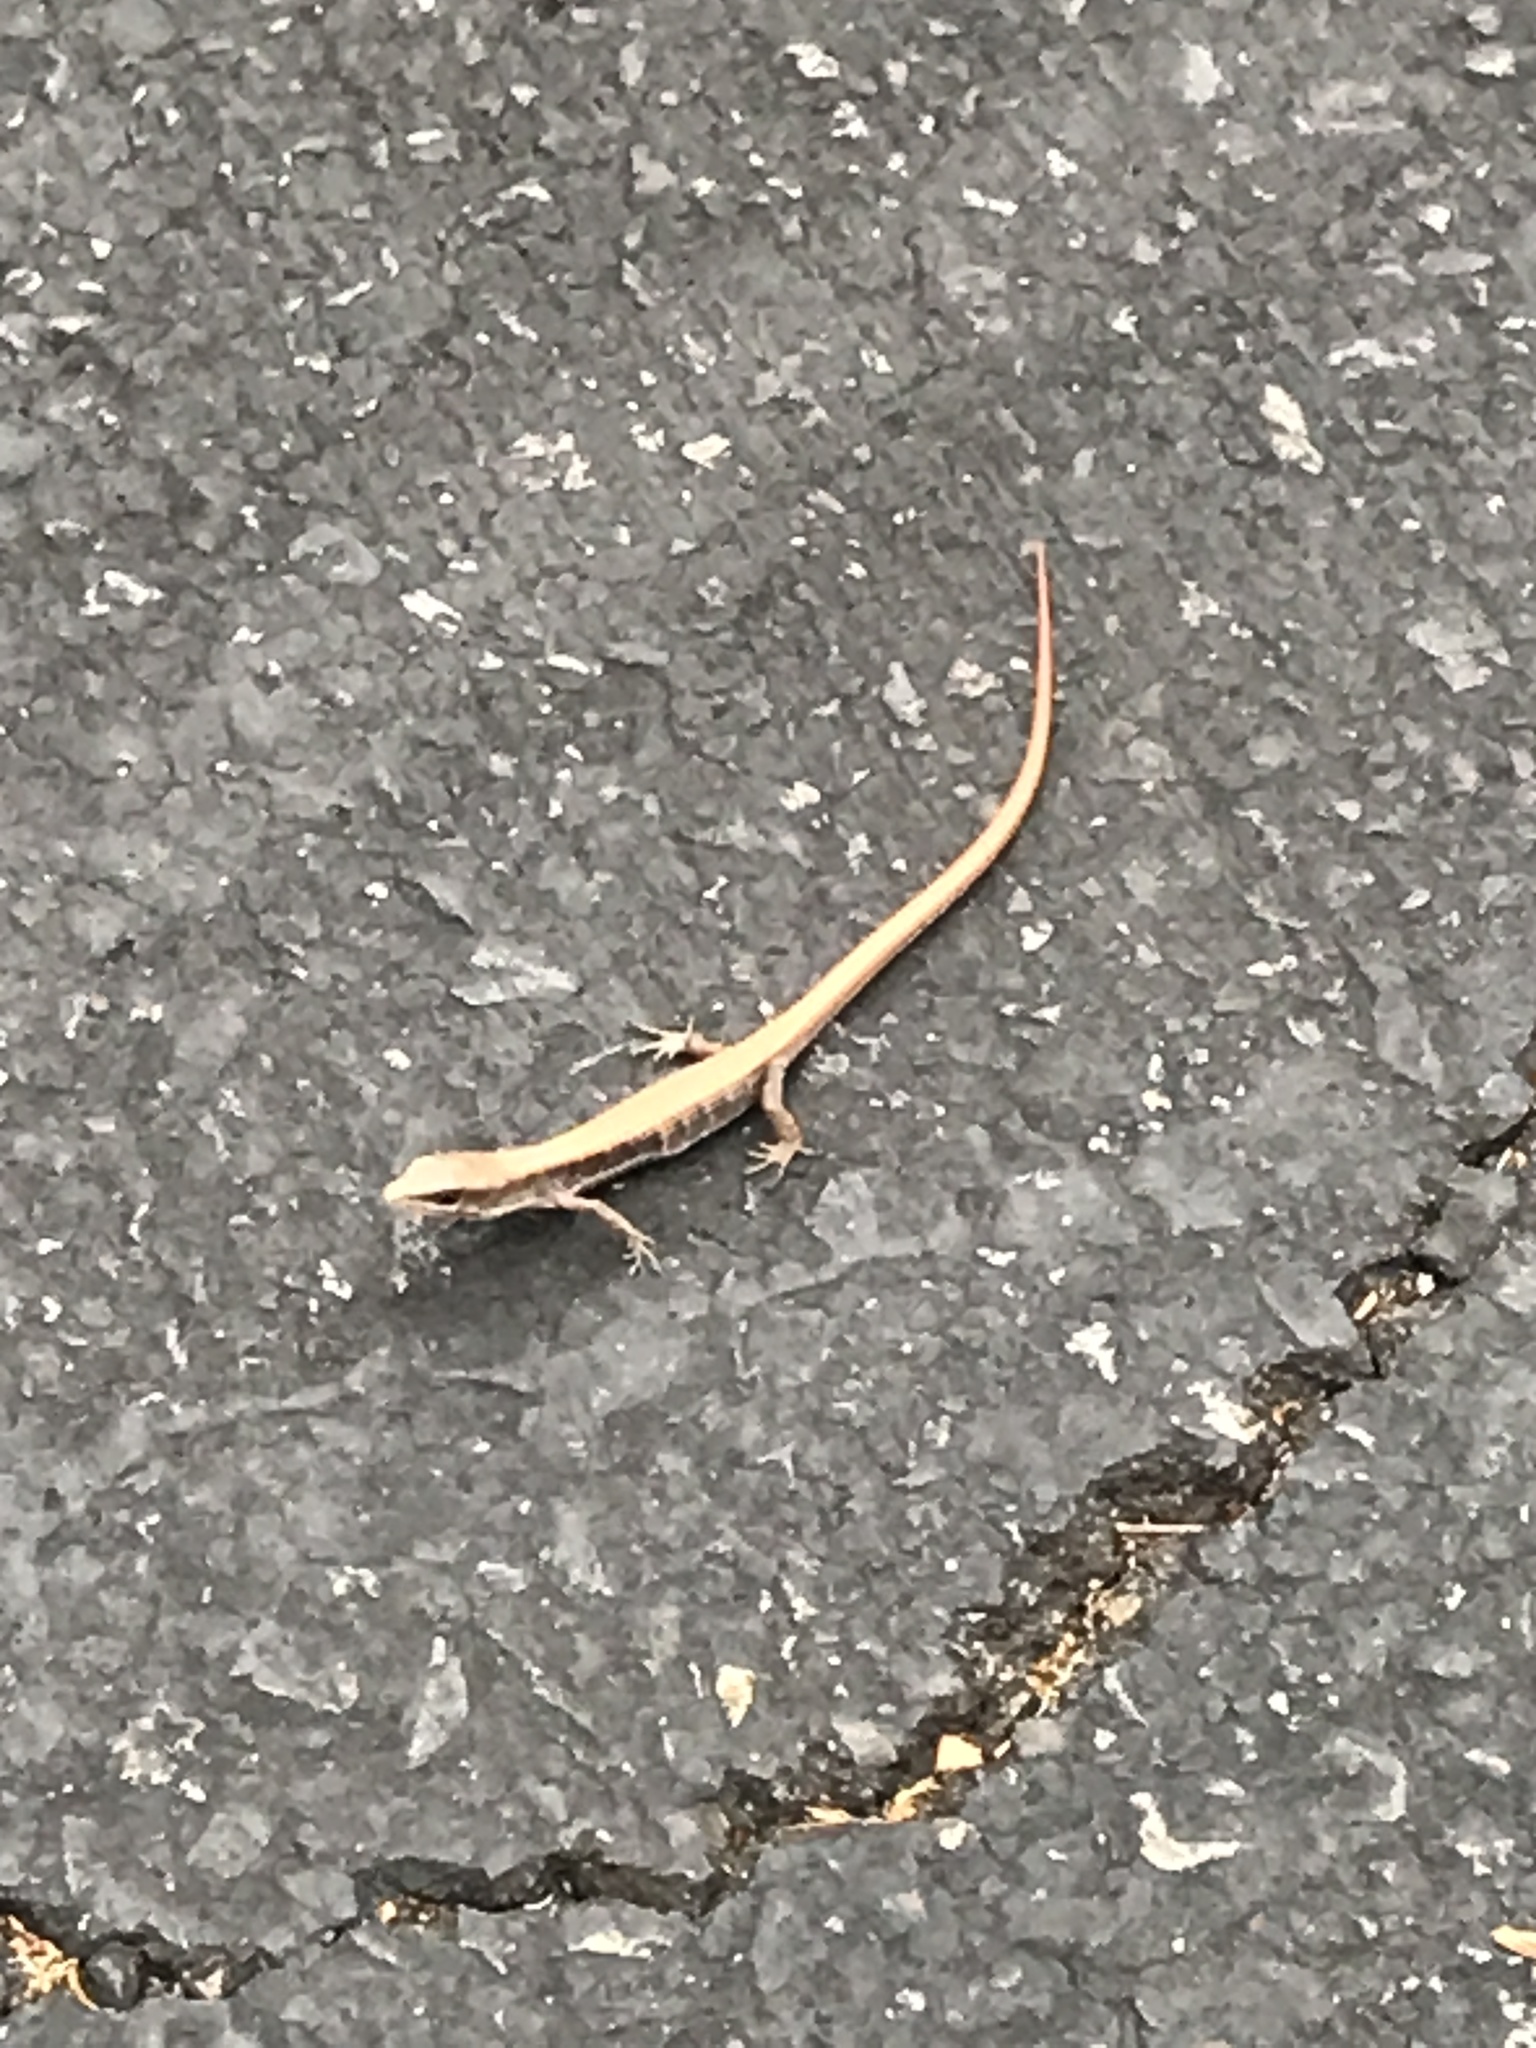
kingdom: Animalia
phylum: Chordata
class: Squamata
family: Anguidae
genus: Elgaria
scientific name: Elgaria multicarinata
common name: Southern alligator lizard
